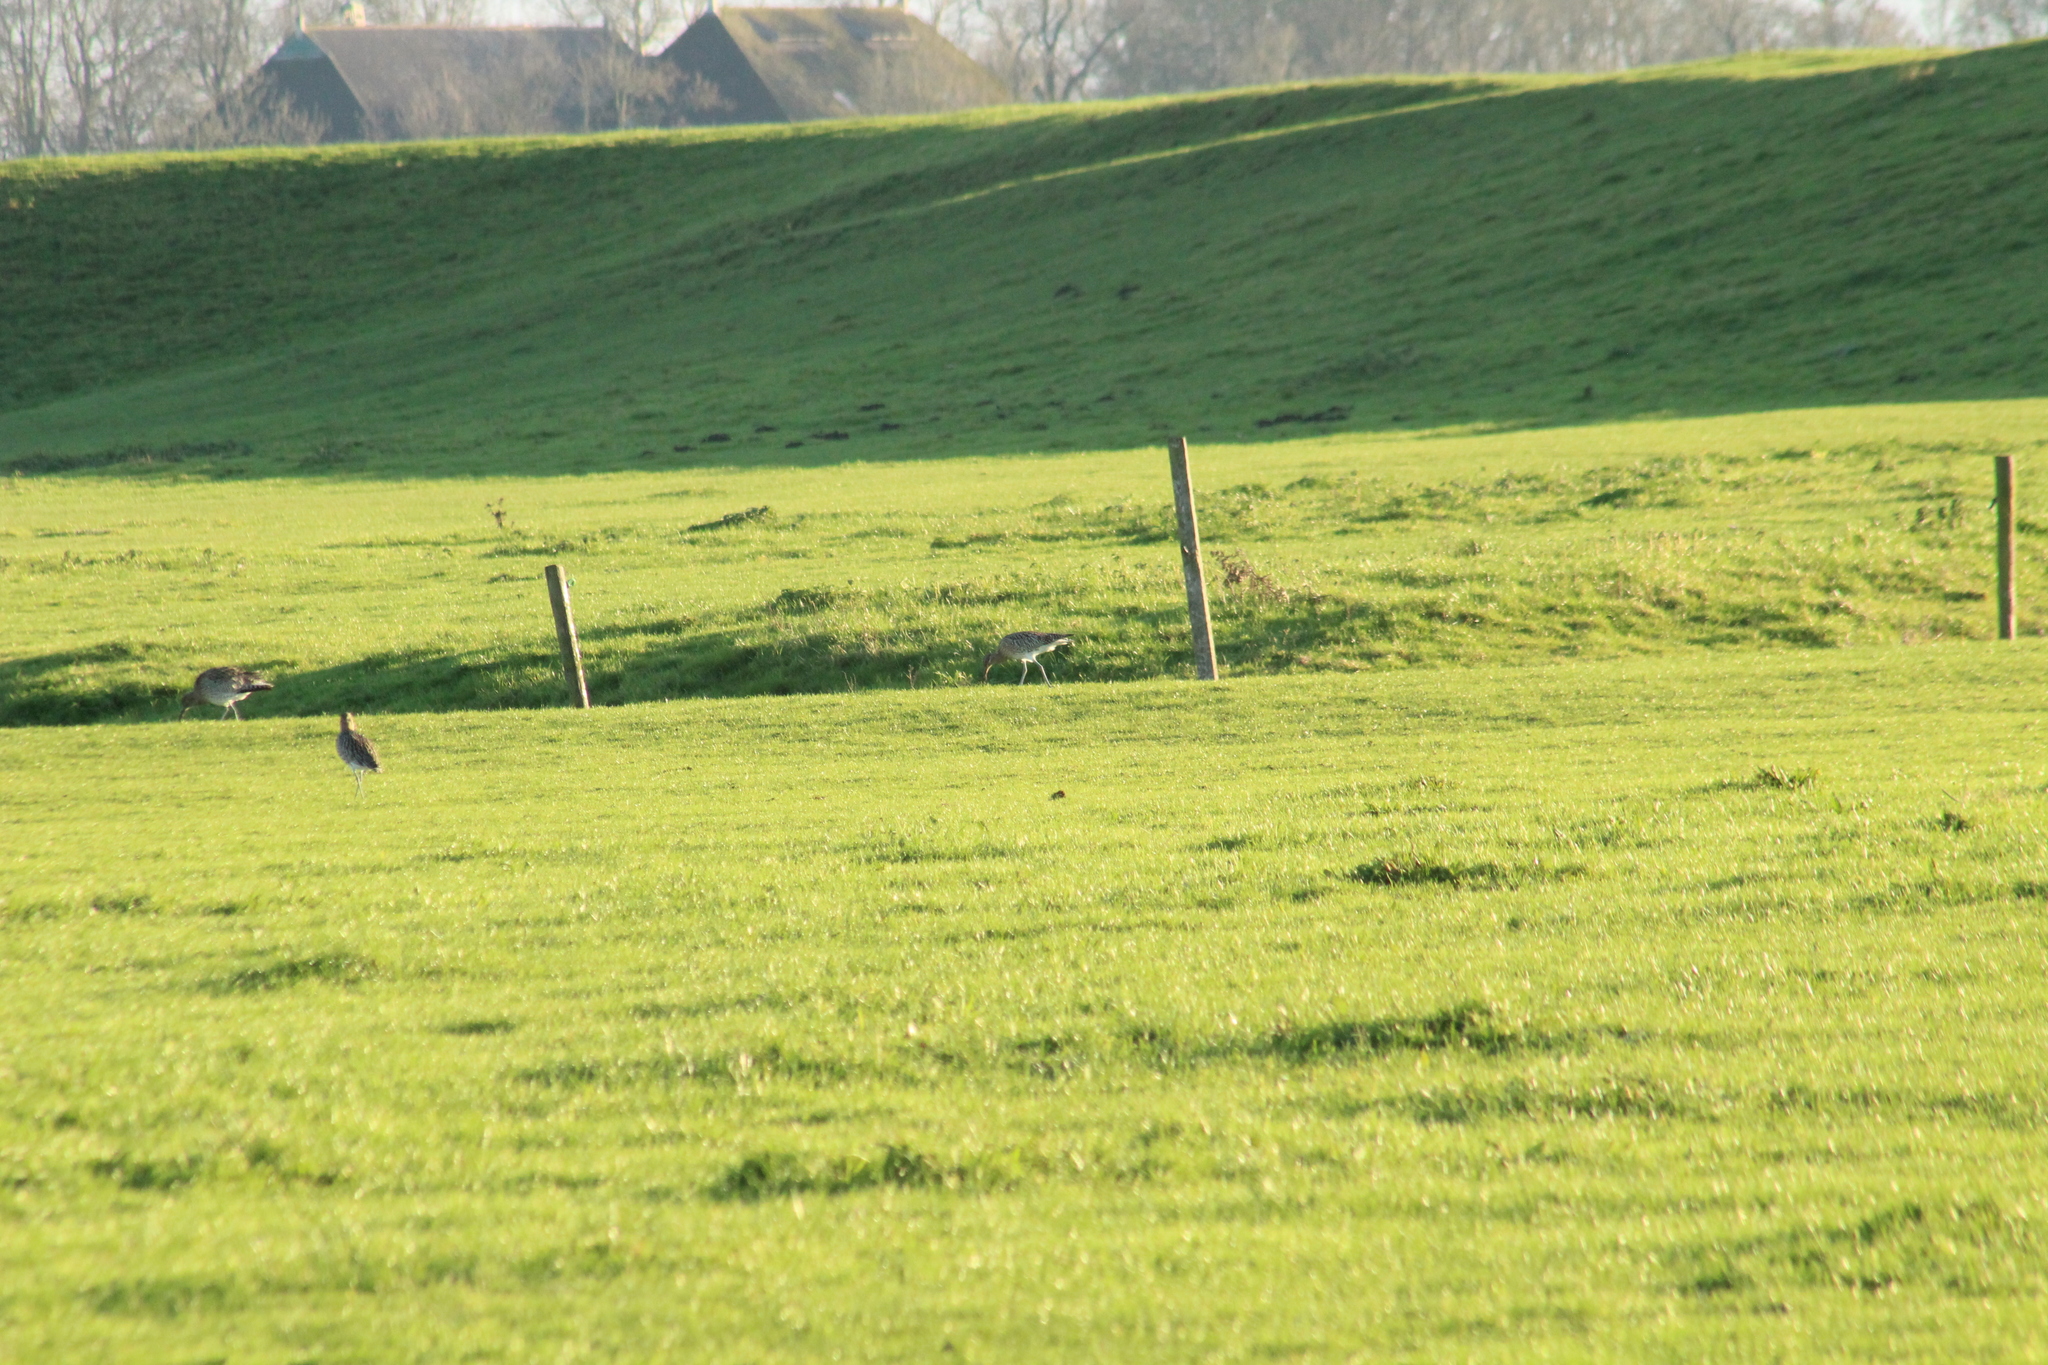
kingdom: Animalia
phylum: Chordata
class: Aves
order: Charadriiformes
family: Scolopacidae
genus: Numenius
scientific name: Numenius arquata
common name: Eurasian curlew
